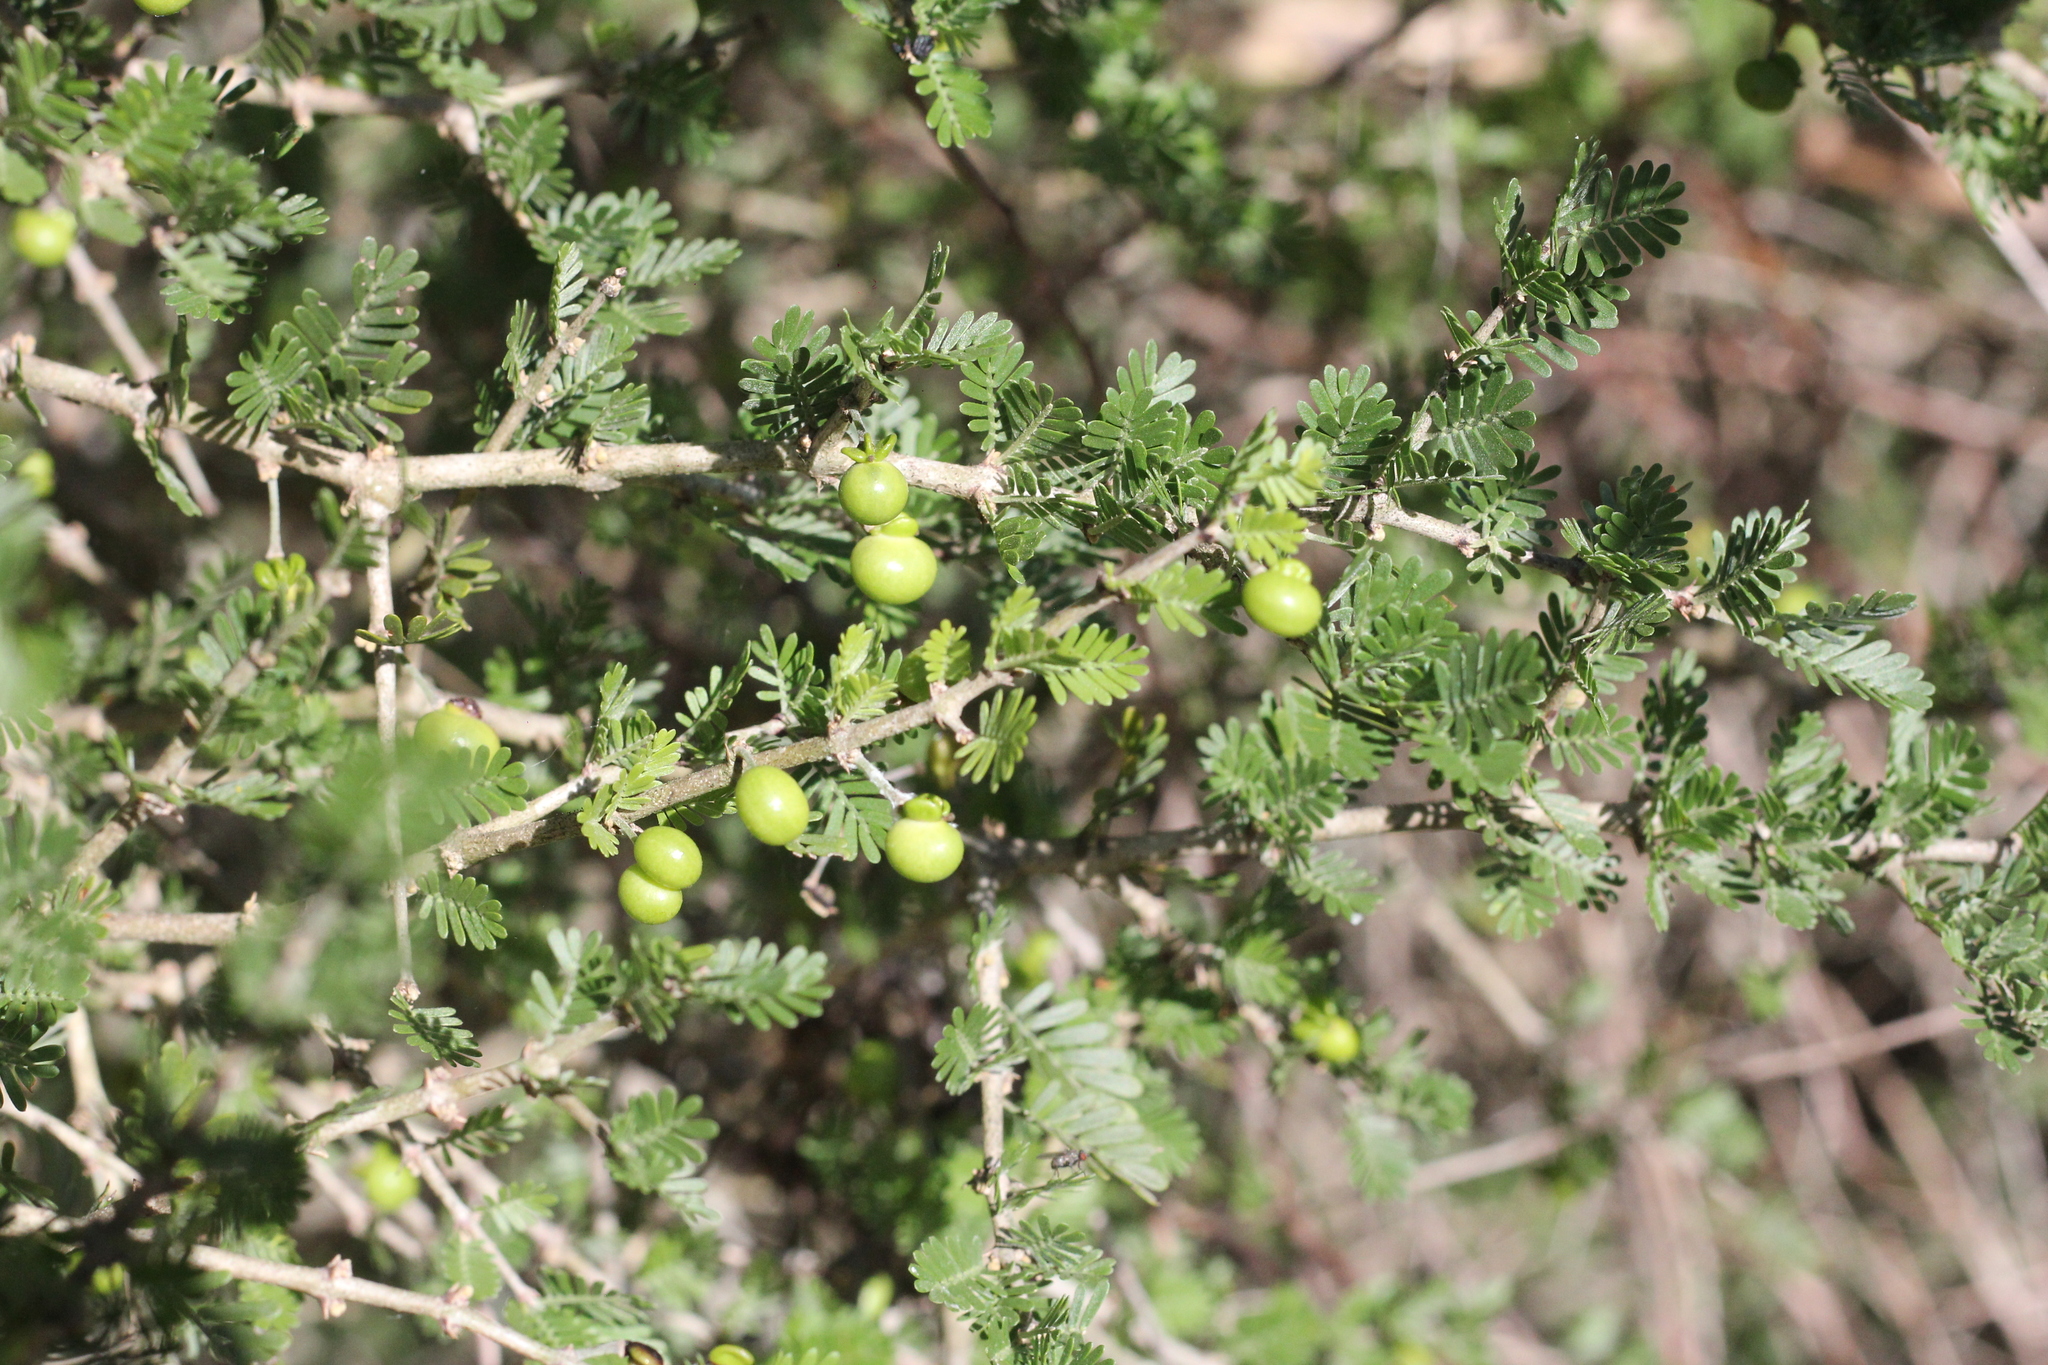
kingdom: Plantae
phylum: Tracheophyta
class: Magnoliopsida
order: Zygophyllales
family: Zygophyllaceae
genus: Porlieria
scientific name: Porlieria microphylla
